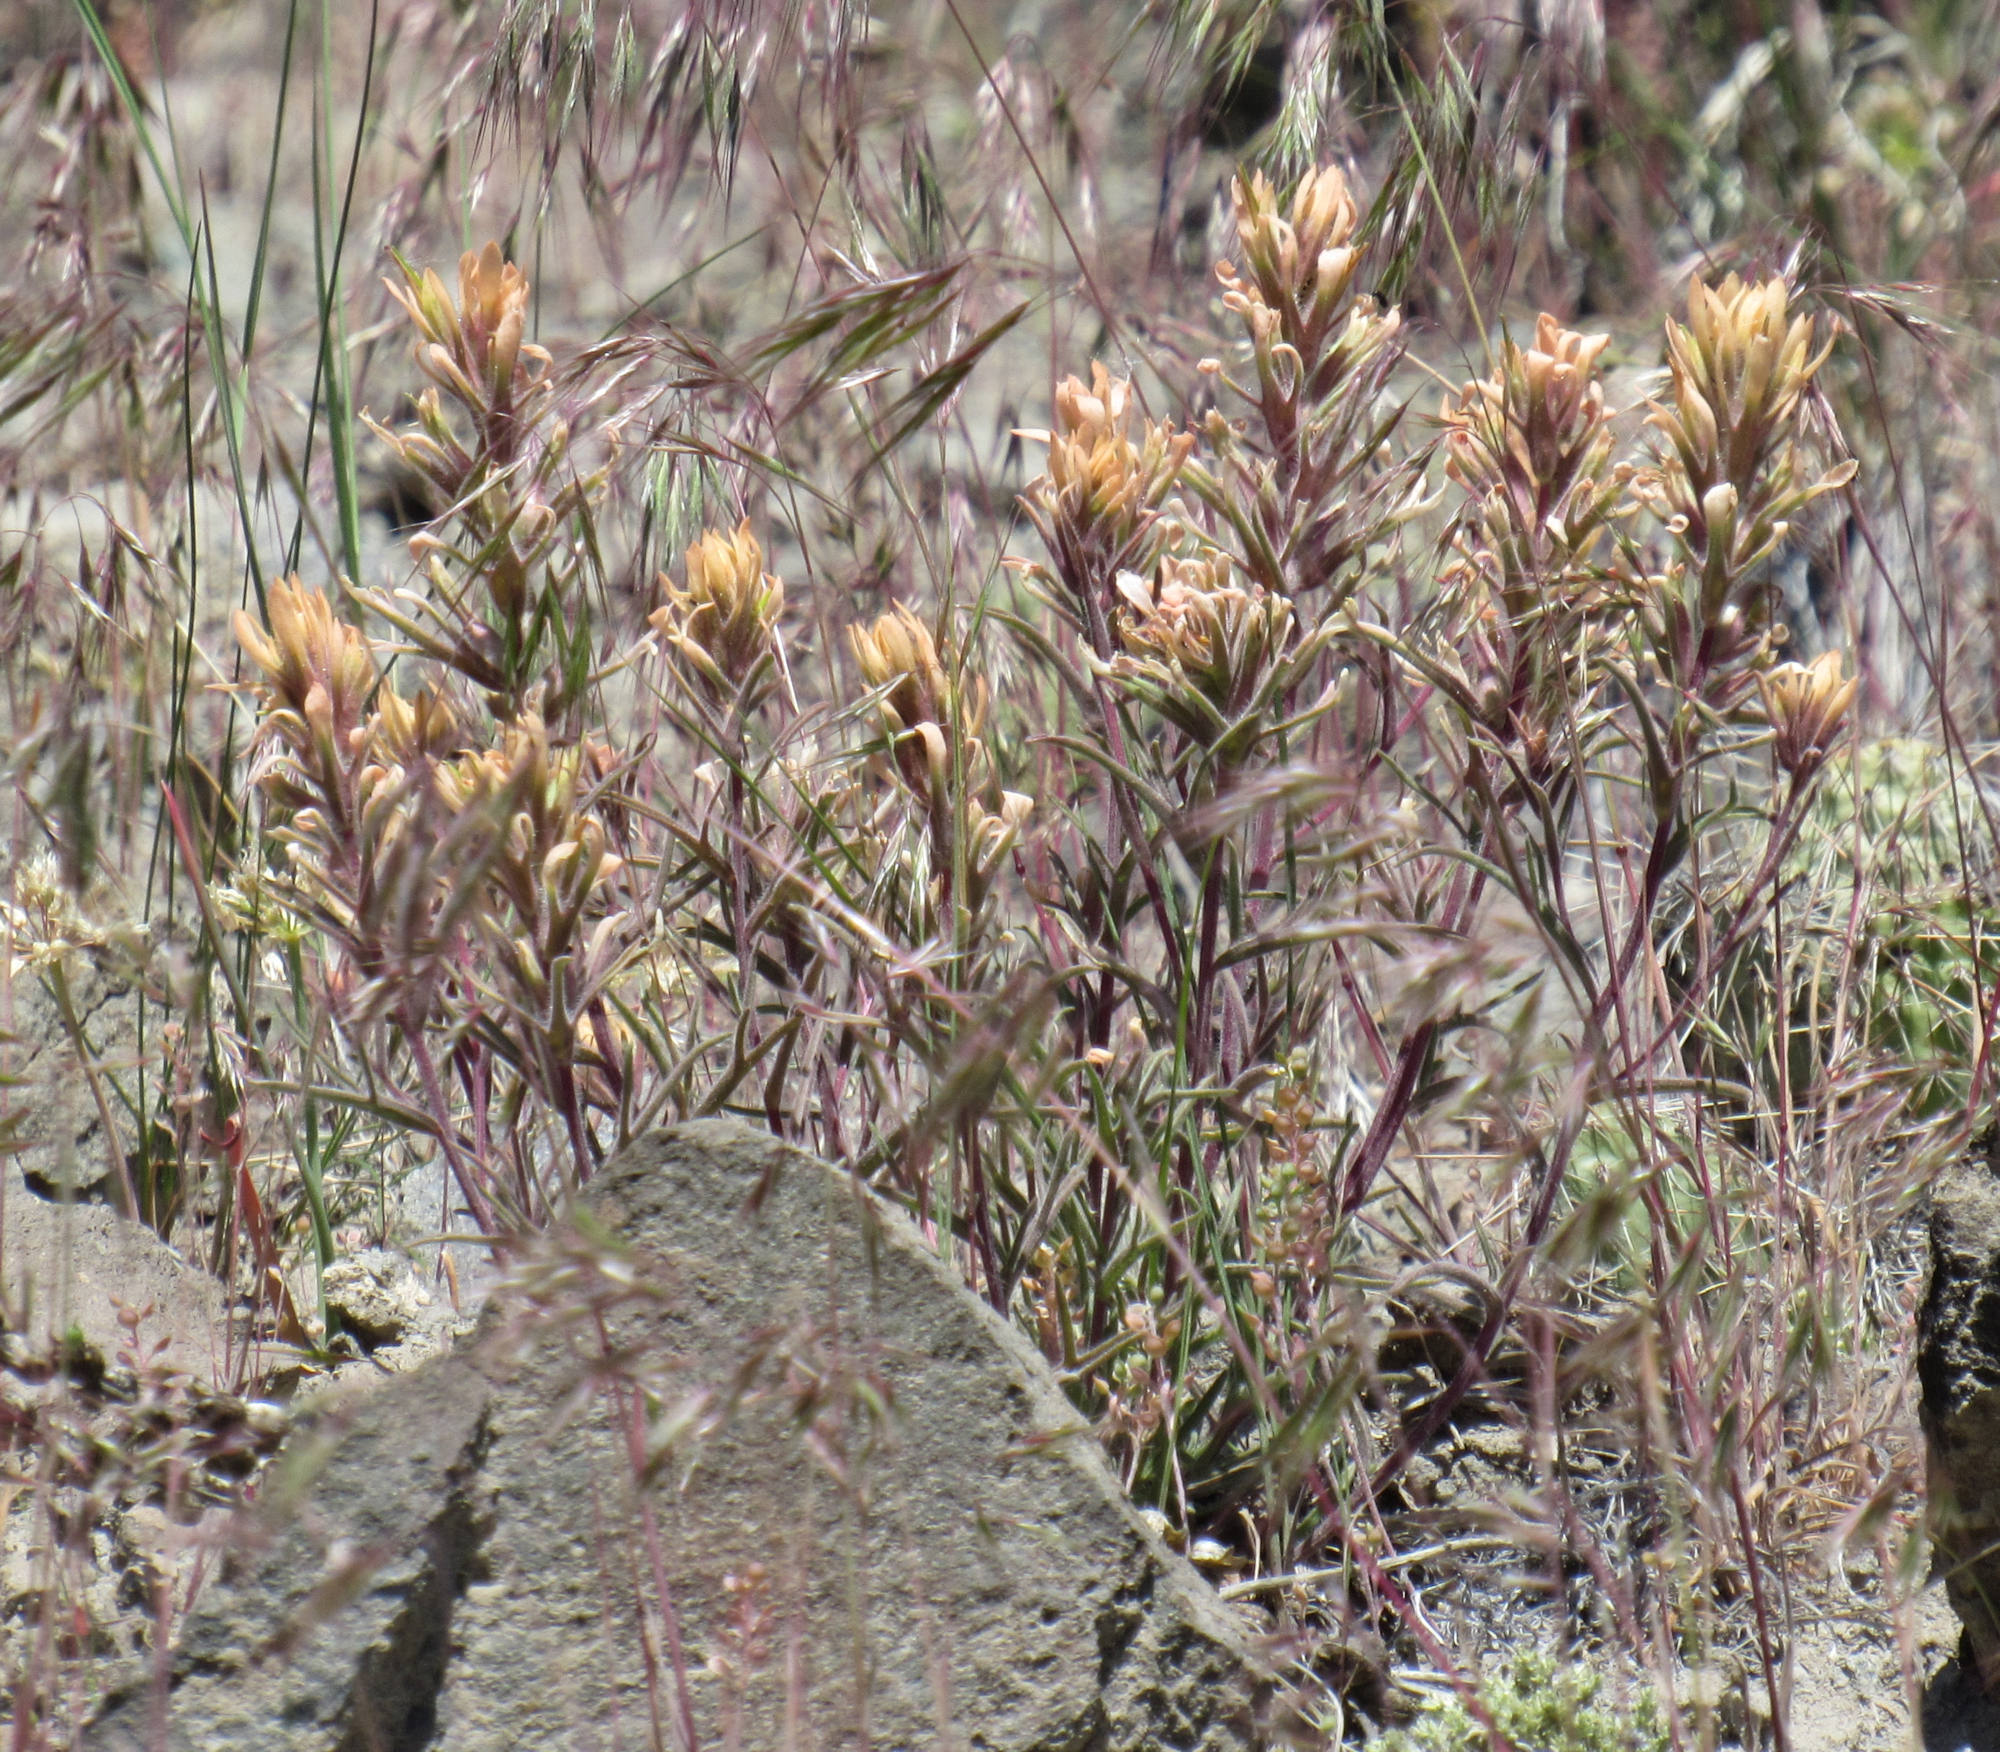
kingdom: Plantae
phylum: Tracheophyta
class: Magnoliopsida
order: Lamiales
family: Orobanchaceae
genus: Castilleja
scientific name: Castilleja angustifolia
